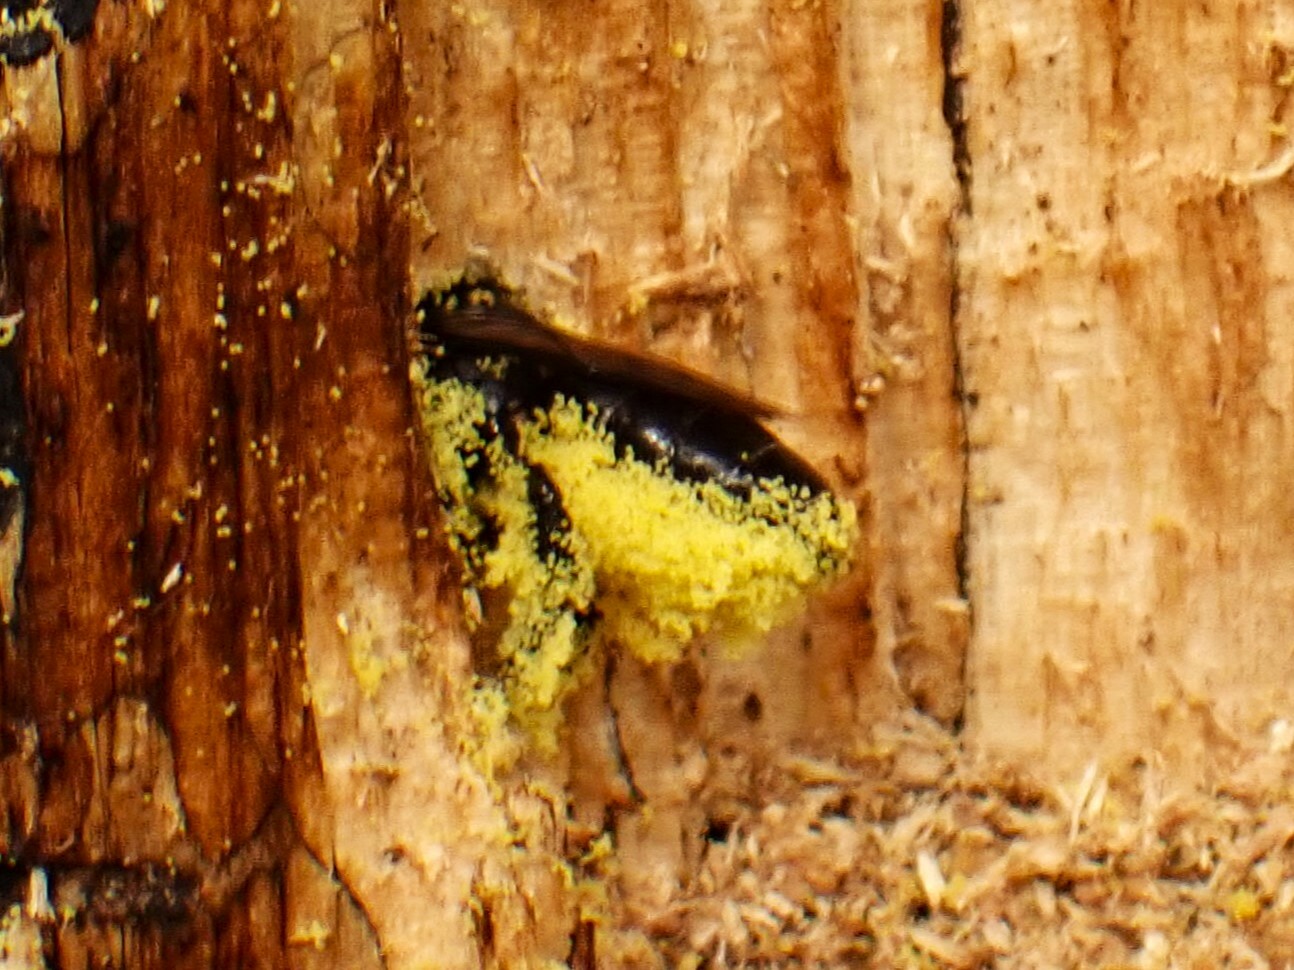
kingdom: Animalia
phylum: Arthropoda
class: Insecta
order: Hymenoptera
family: Megachilidae
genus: Lithurgus
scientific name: Lithurgus scabrosus
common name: Wood-nesting bee
